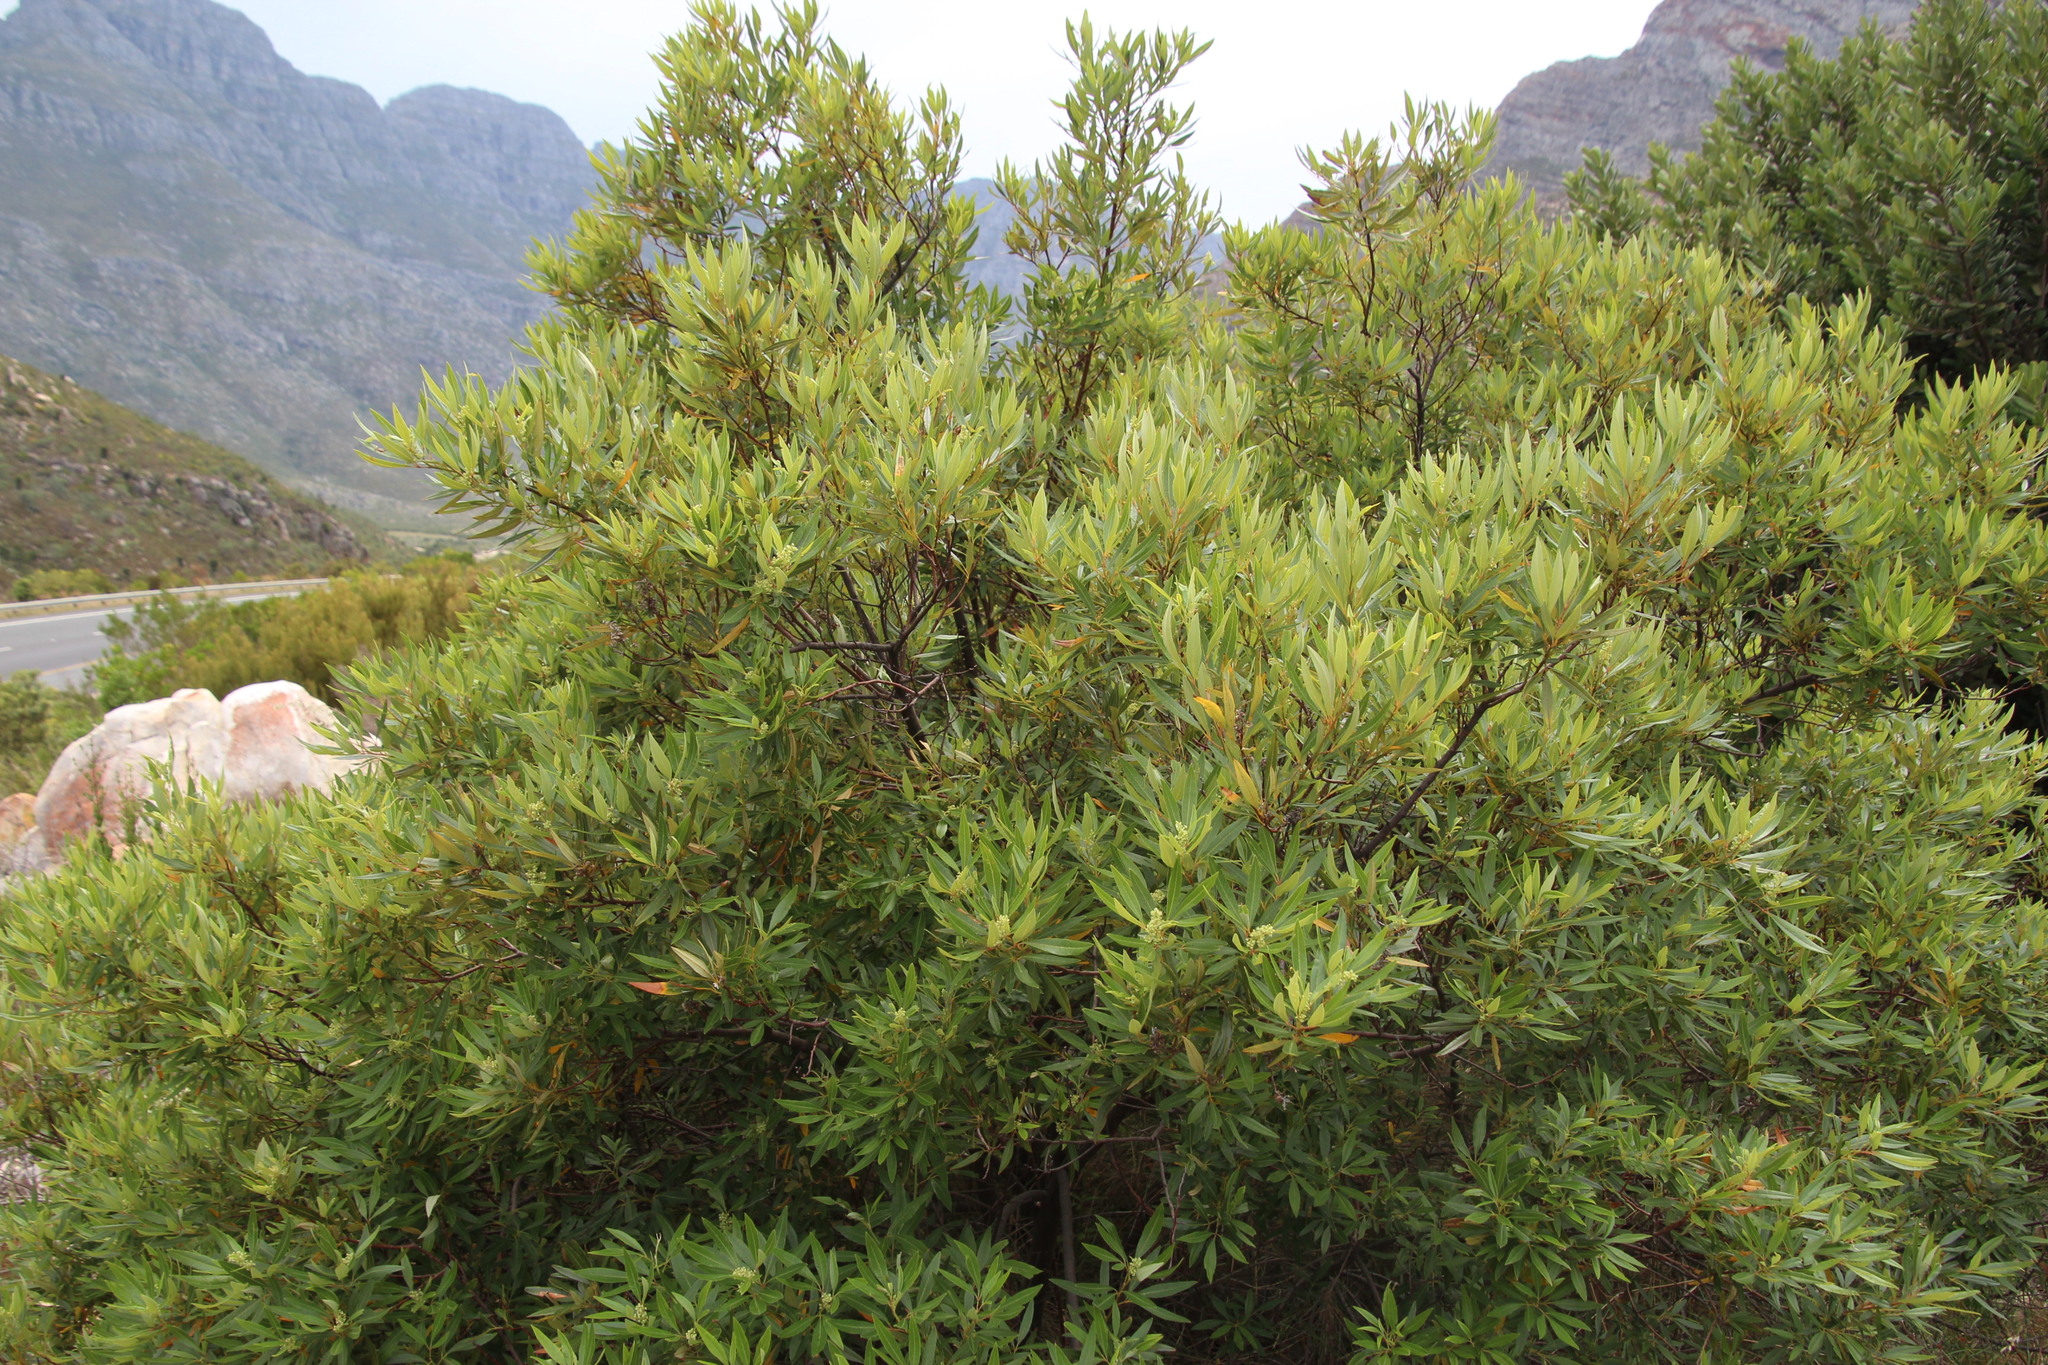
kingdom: Plantae
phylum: Tracheophyta
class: Magnoliopsida
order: Sapindales
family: Anacardiaceae
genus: Searsia
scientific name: Searsia angustifolia
